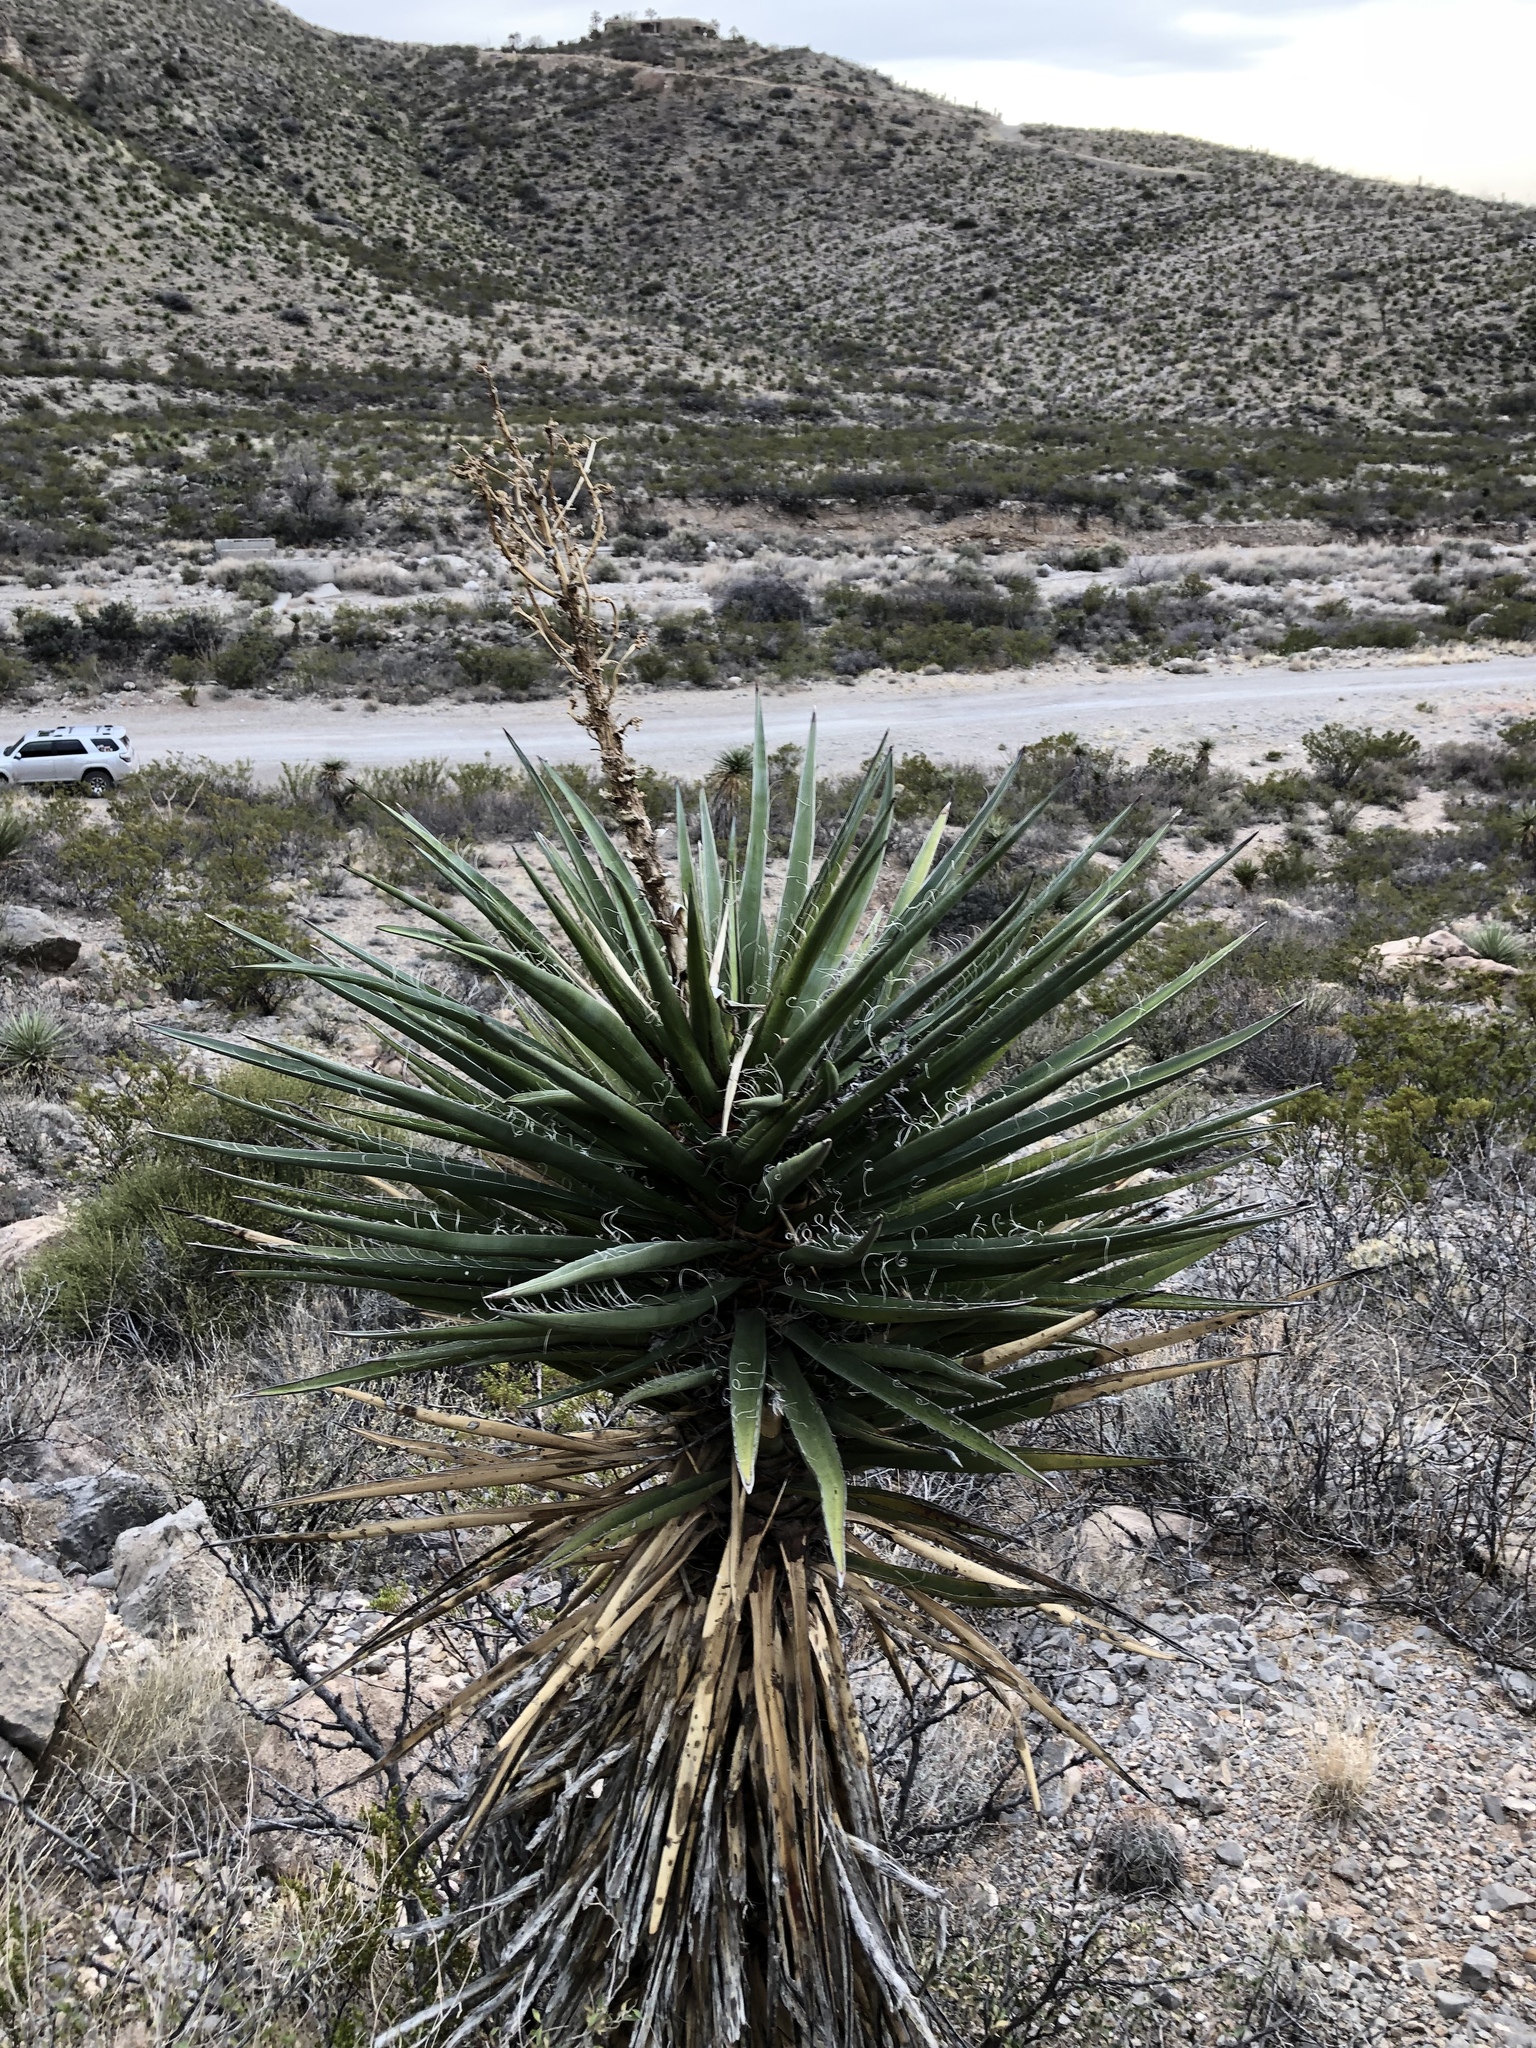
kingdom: Plantae
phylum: Tracheophyta
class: Liliopsida
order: Asparagales
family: Asparagaceae
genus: Yucca
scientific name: Yucca treculiana
